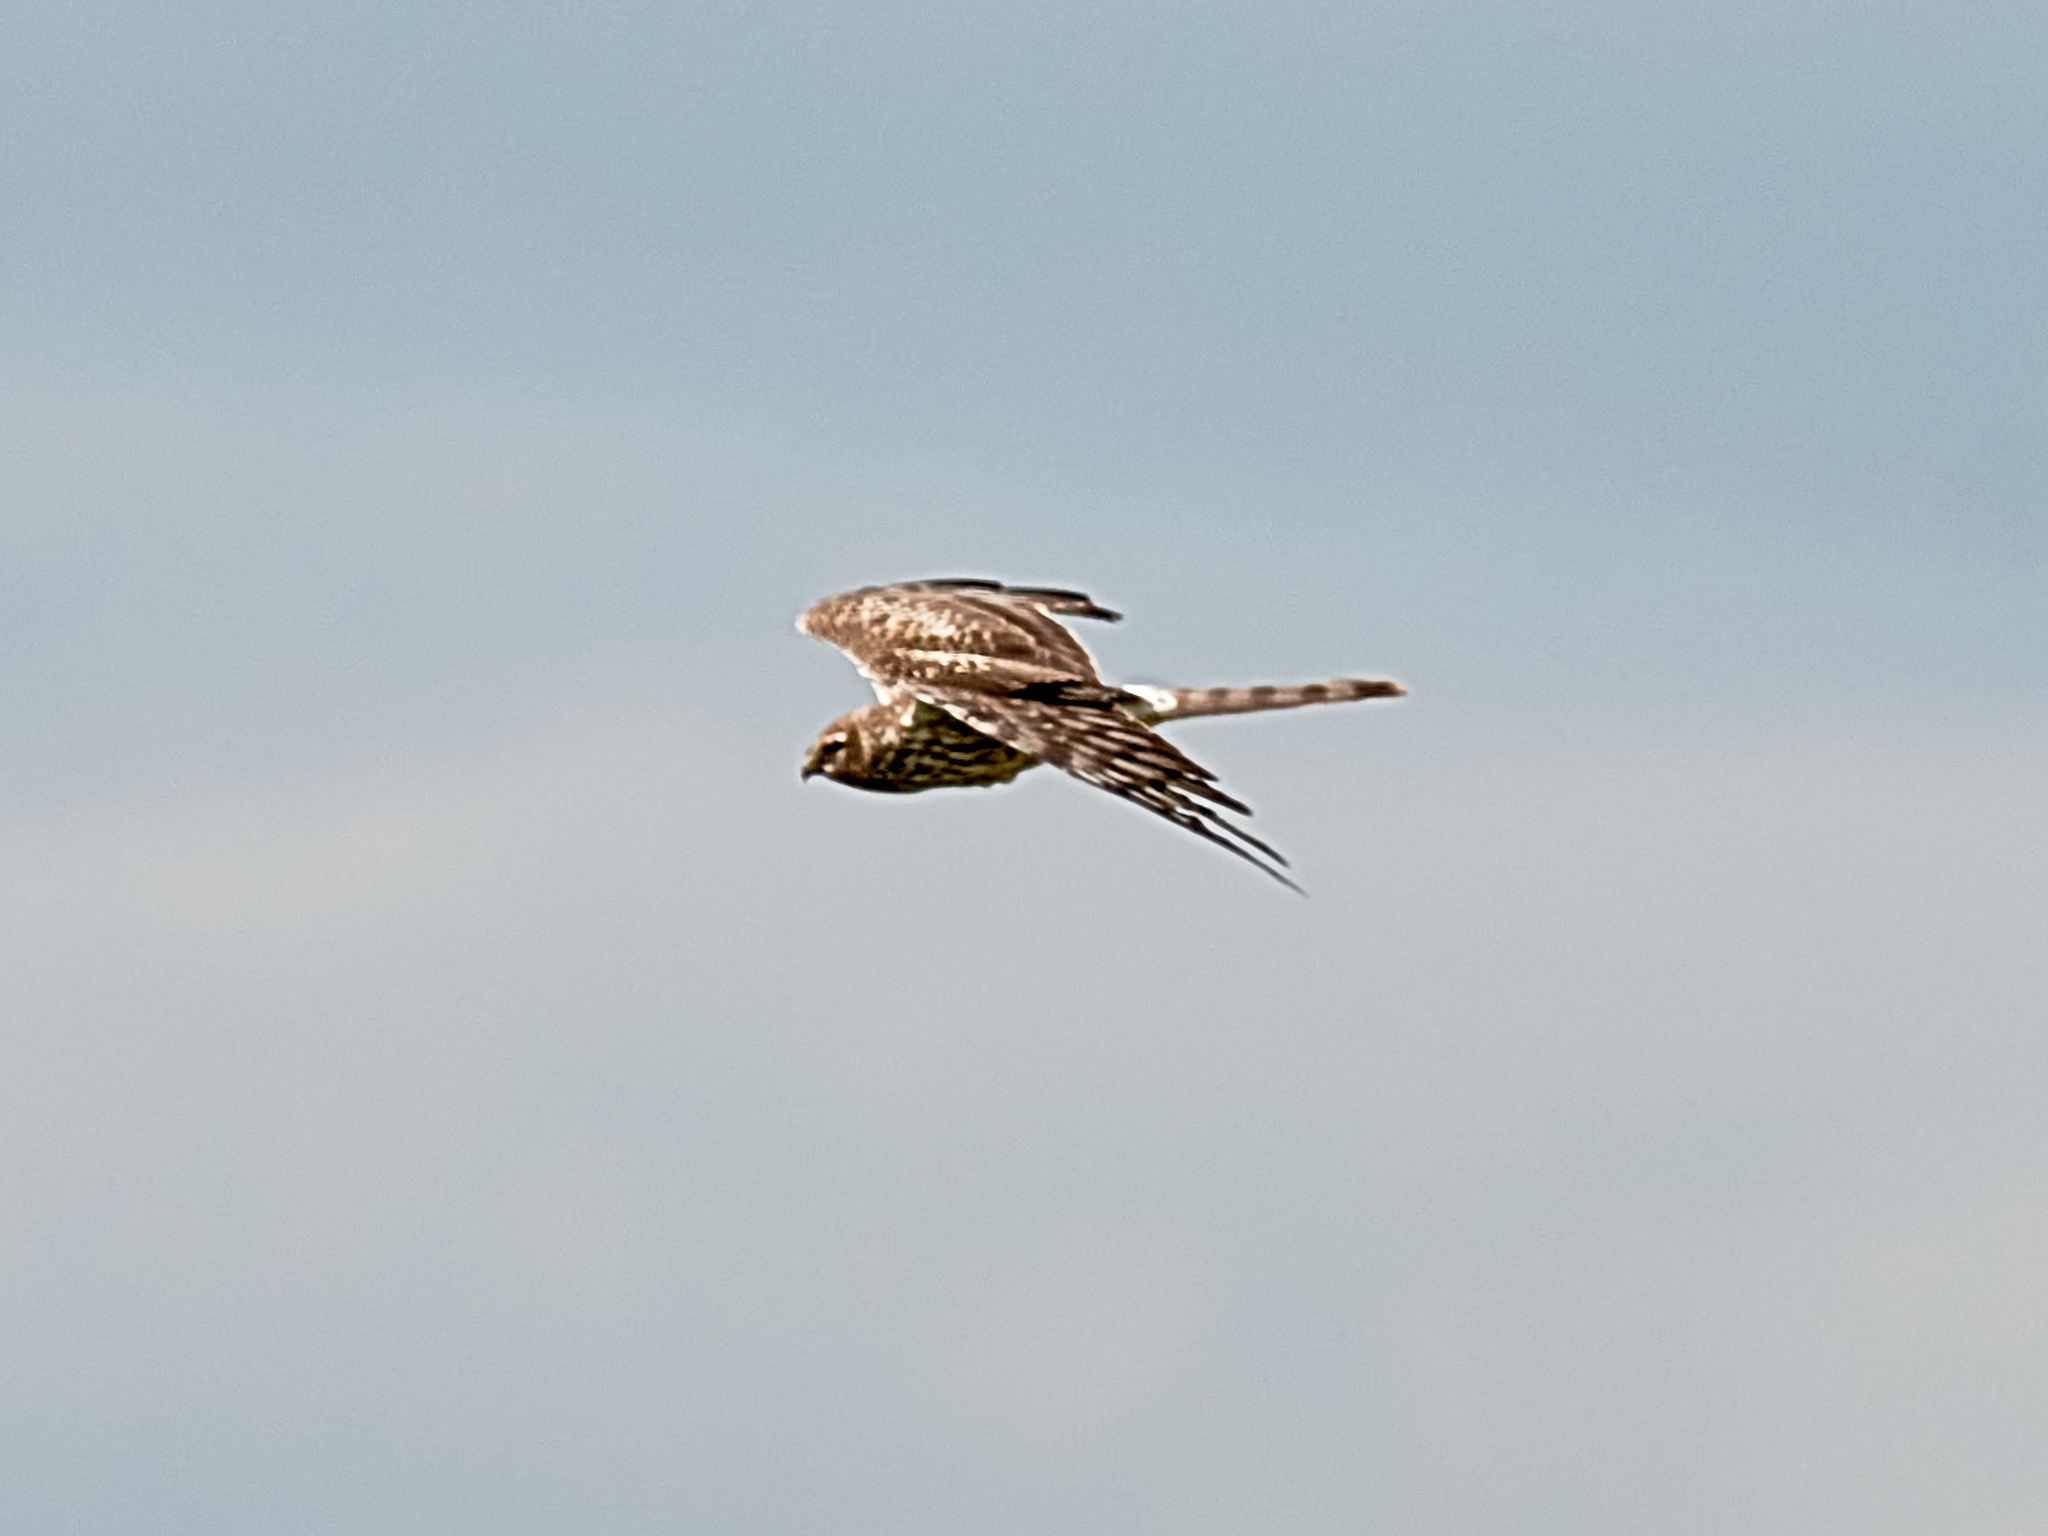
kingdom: Animalia
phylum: Chordata
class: Aves
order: Accipitriformes
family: Accipitridae
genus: Circus
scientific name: Circus pygargus
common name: Montagu's harrier
